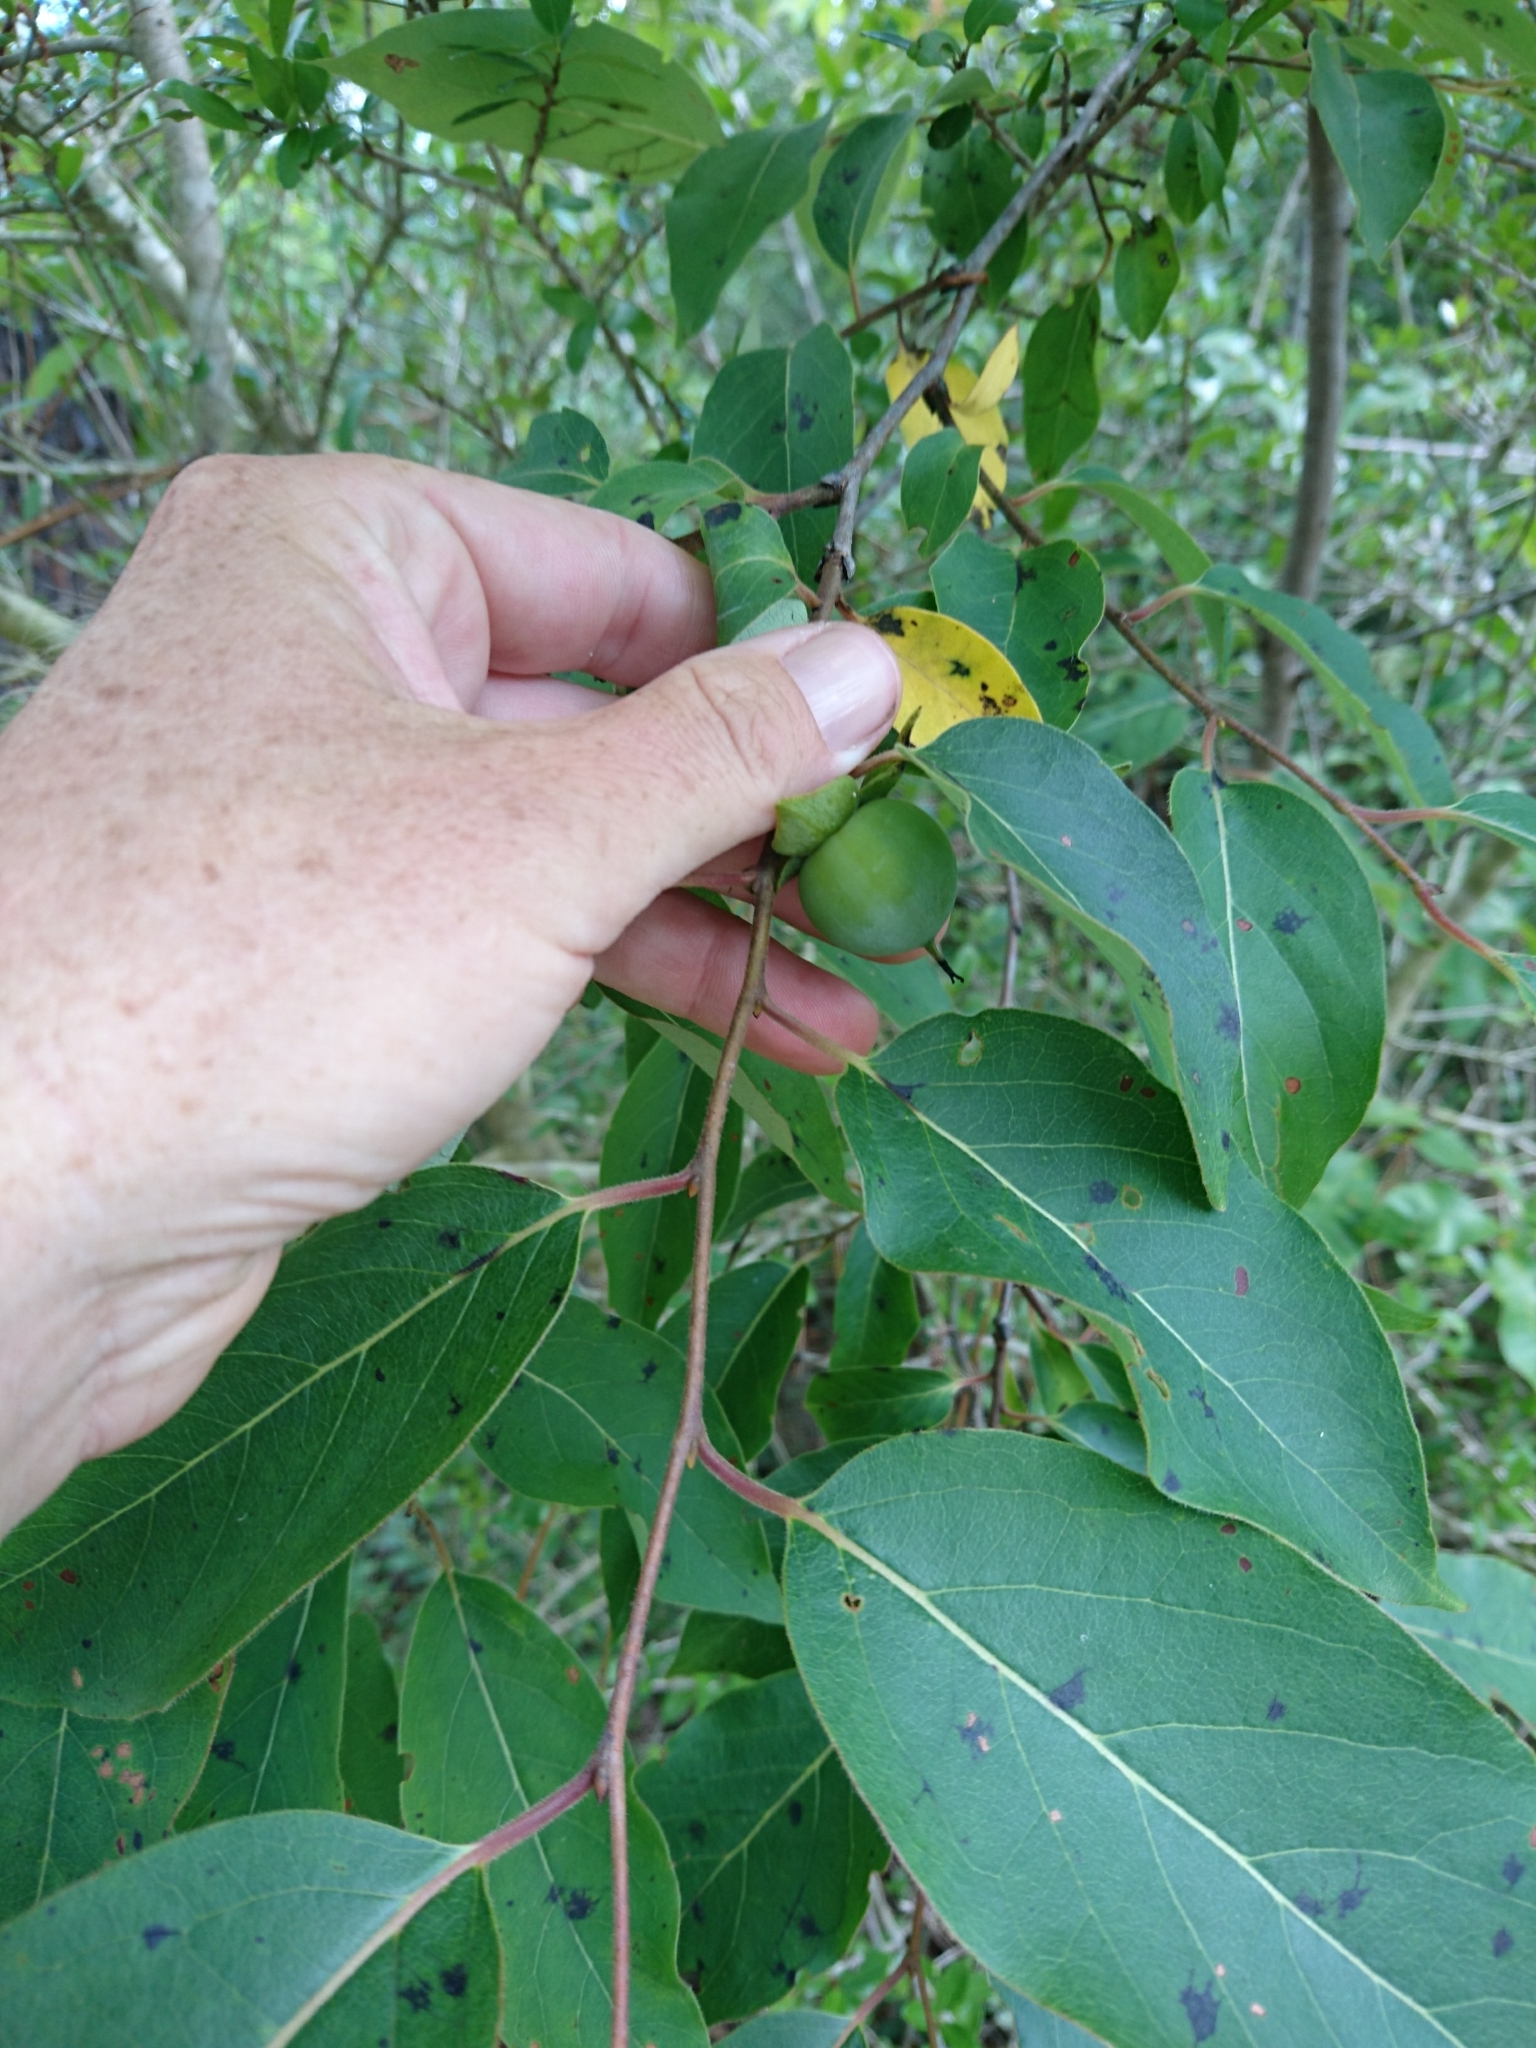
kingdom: Plantae
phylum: Tracheophyta
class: Magnoliopsida
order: Ericales
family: Ebenaceae
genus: Diospyros
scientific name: Diospyros virginiana
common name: Persimmon
